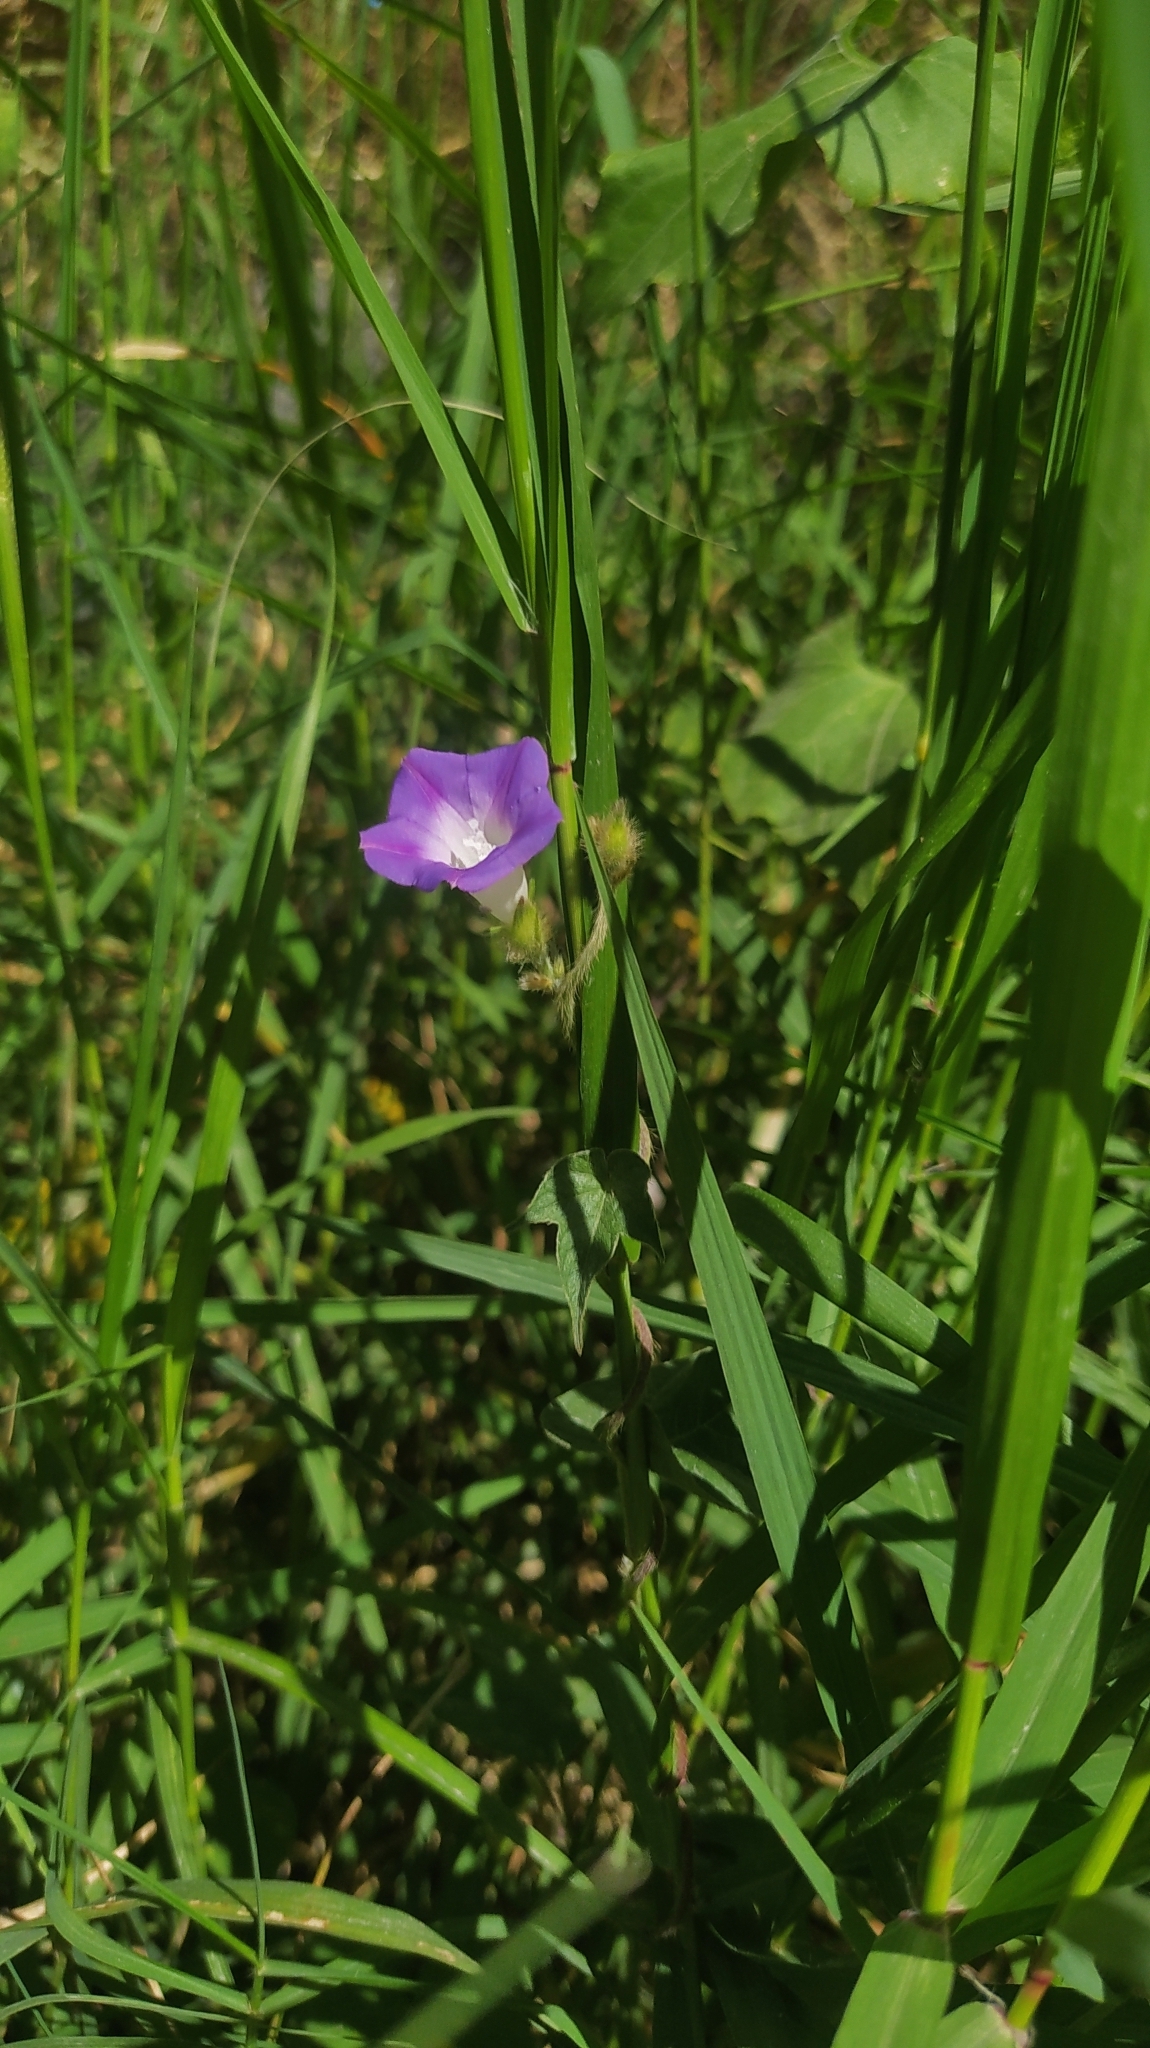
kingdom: Plantae
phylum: Tracheophyta
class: Magnoliopsida
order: Solanales
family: Convolvulaceae
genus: Ipomoea
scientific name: Ipomoea purpurea
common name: Common morning-glory
